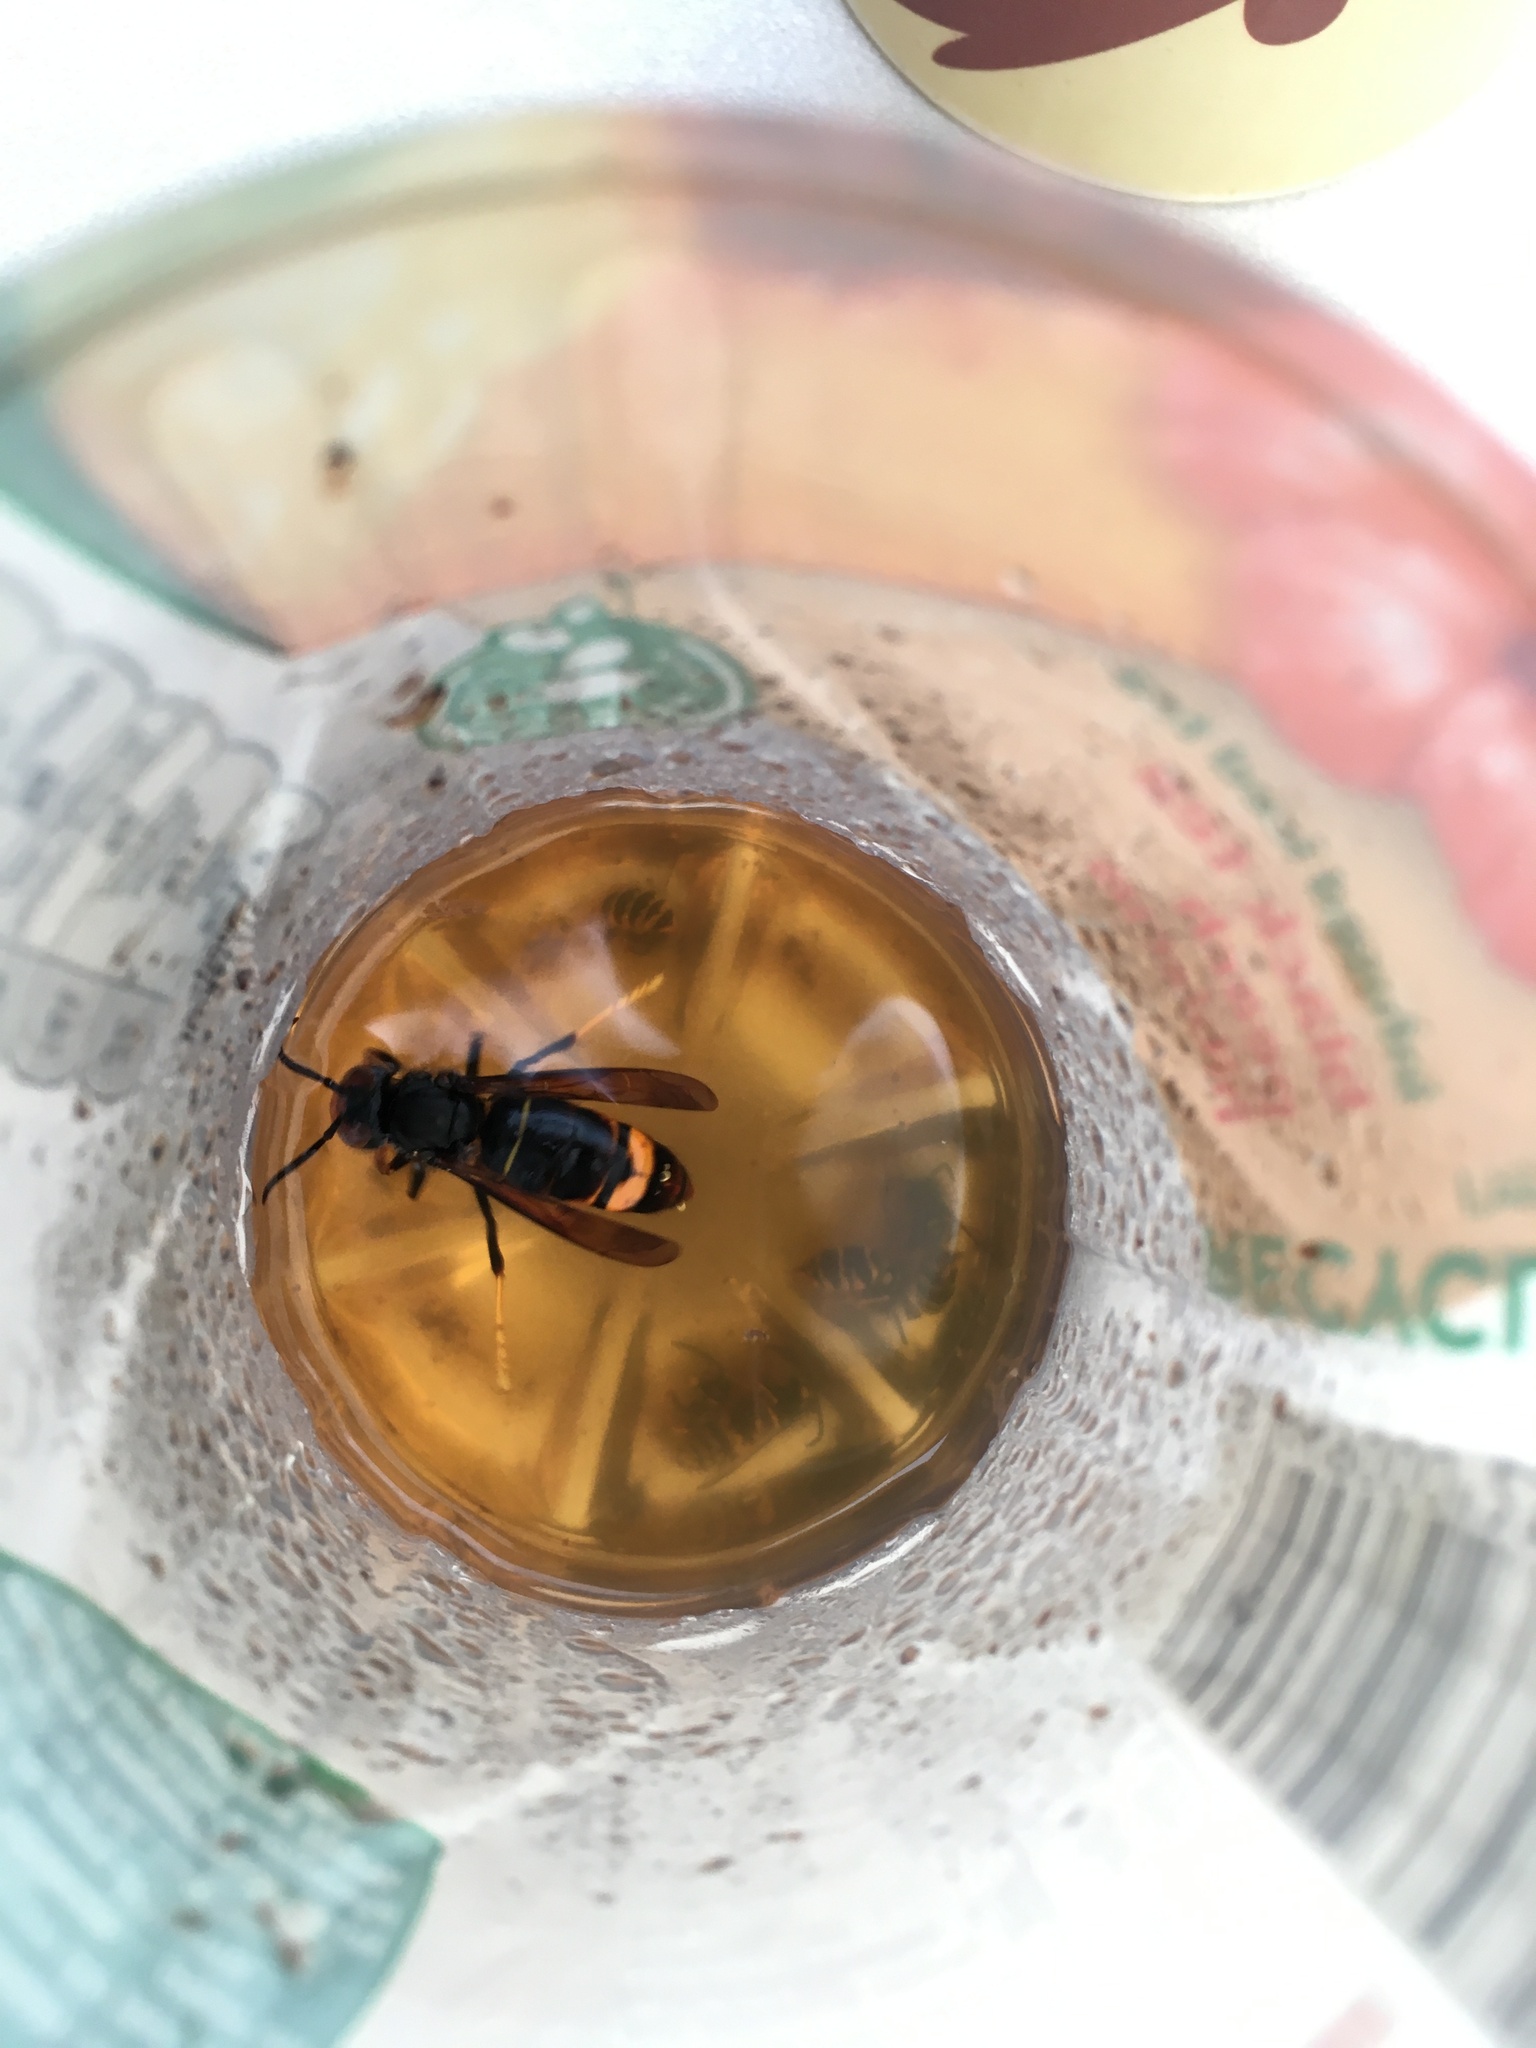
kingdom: Animalia
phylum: Arthropoda
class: Insecta
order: Hymenoptera
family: Vespidae
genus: Vespa
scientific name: Vespa velutina
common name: Asian hornet
